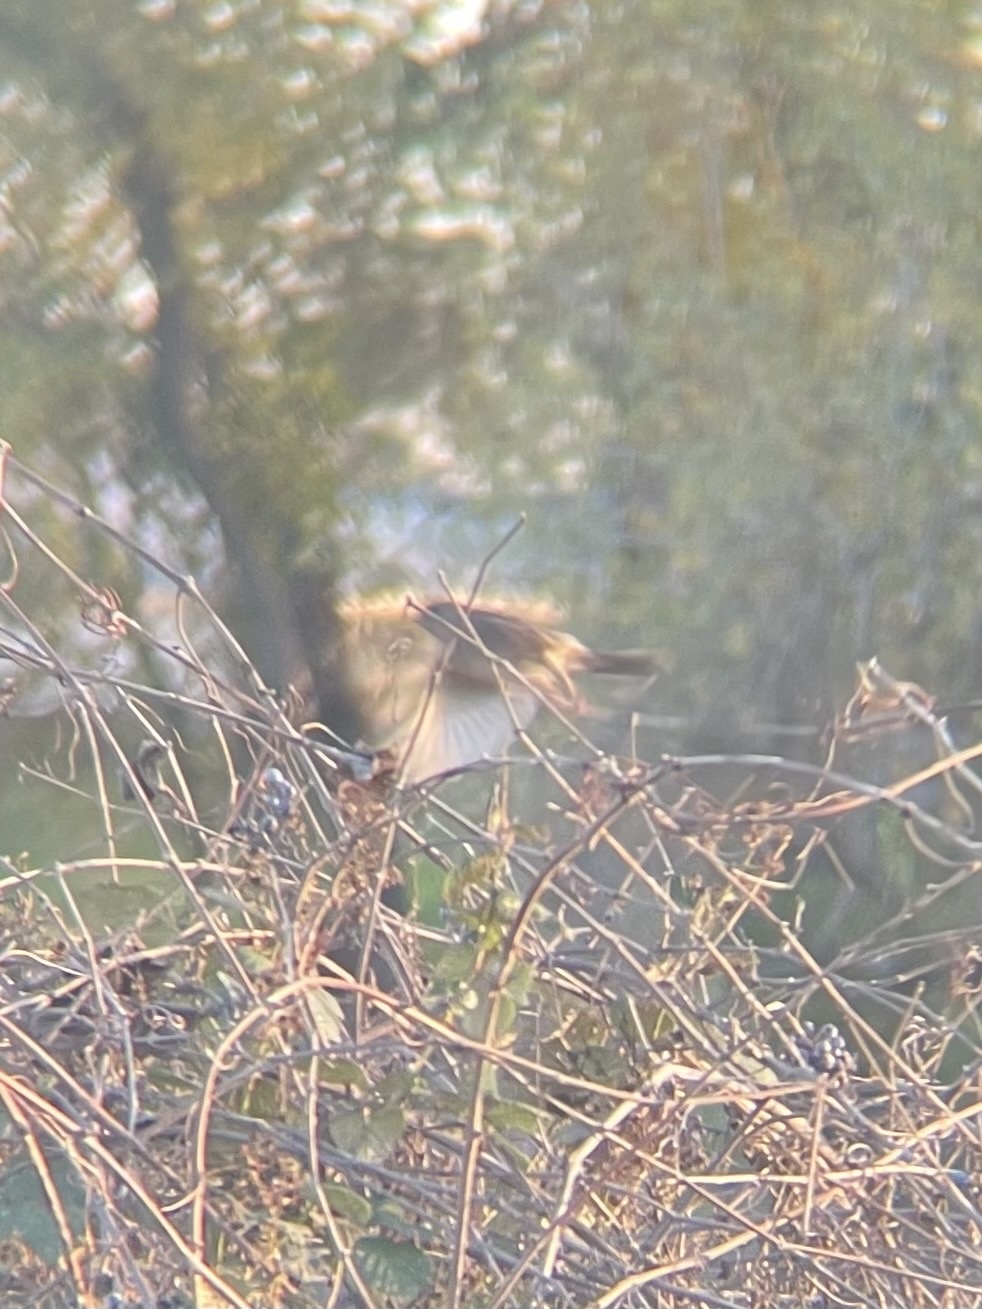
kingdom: Animalia
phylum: Chordata
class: Aves
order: Passeriformes
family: Passerellidae
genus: Zonotrichia
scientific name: Zonotrichia
